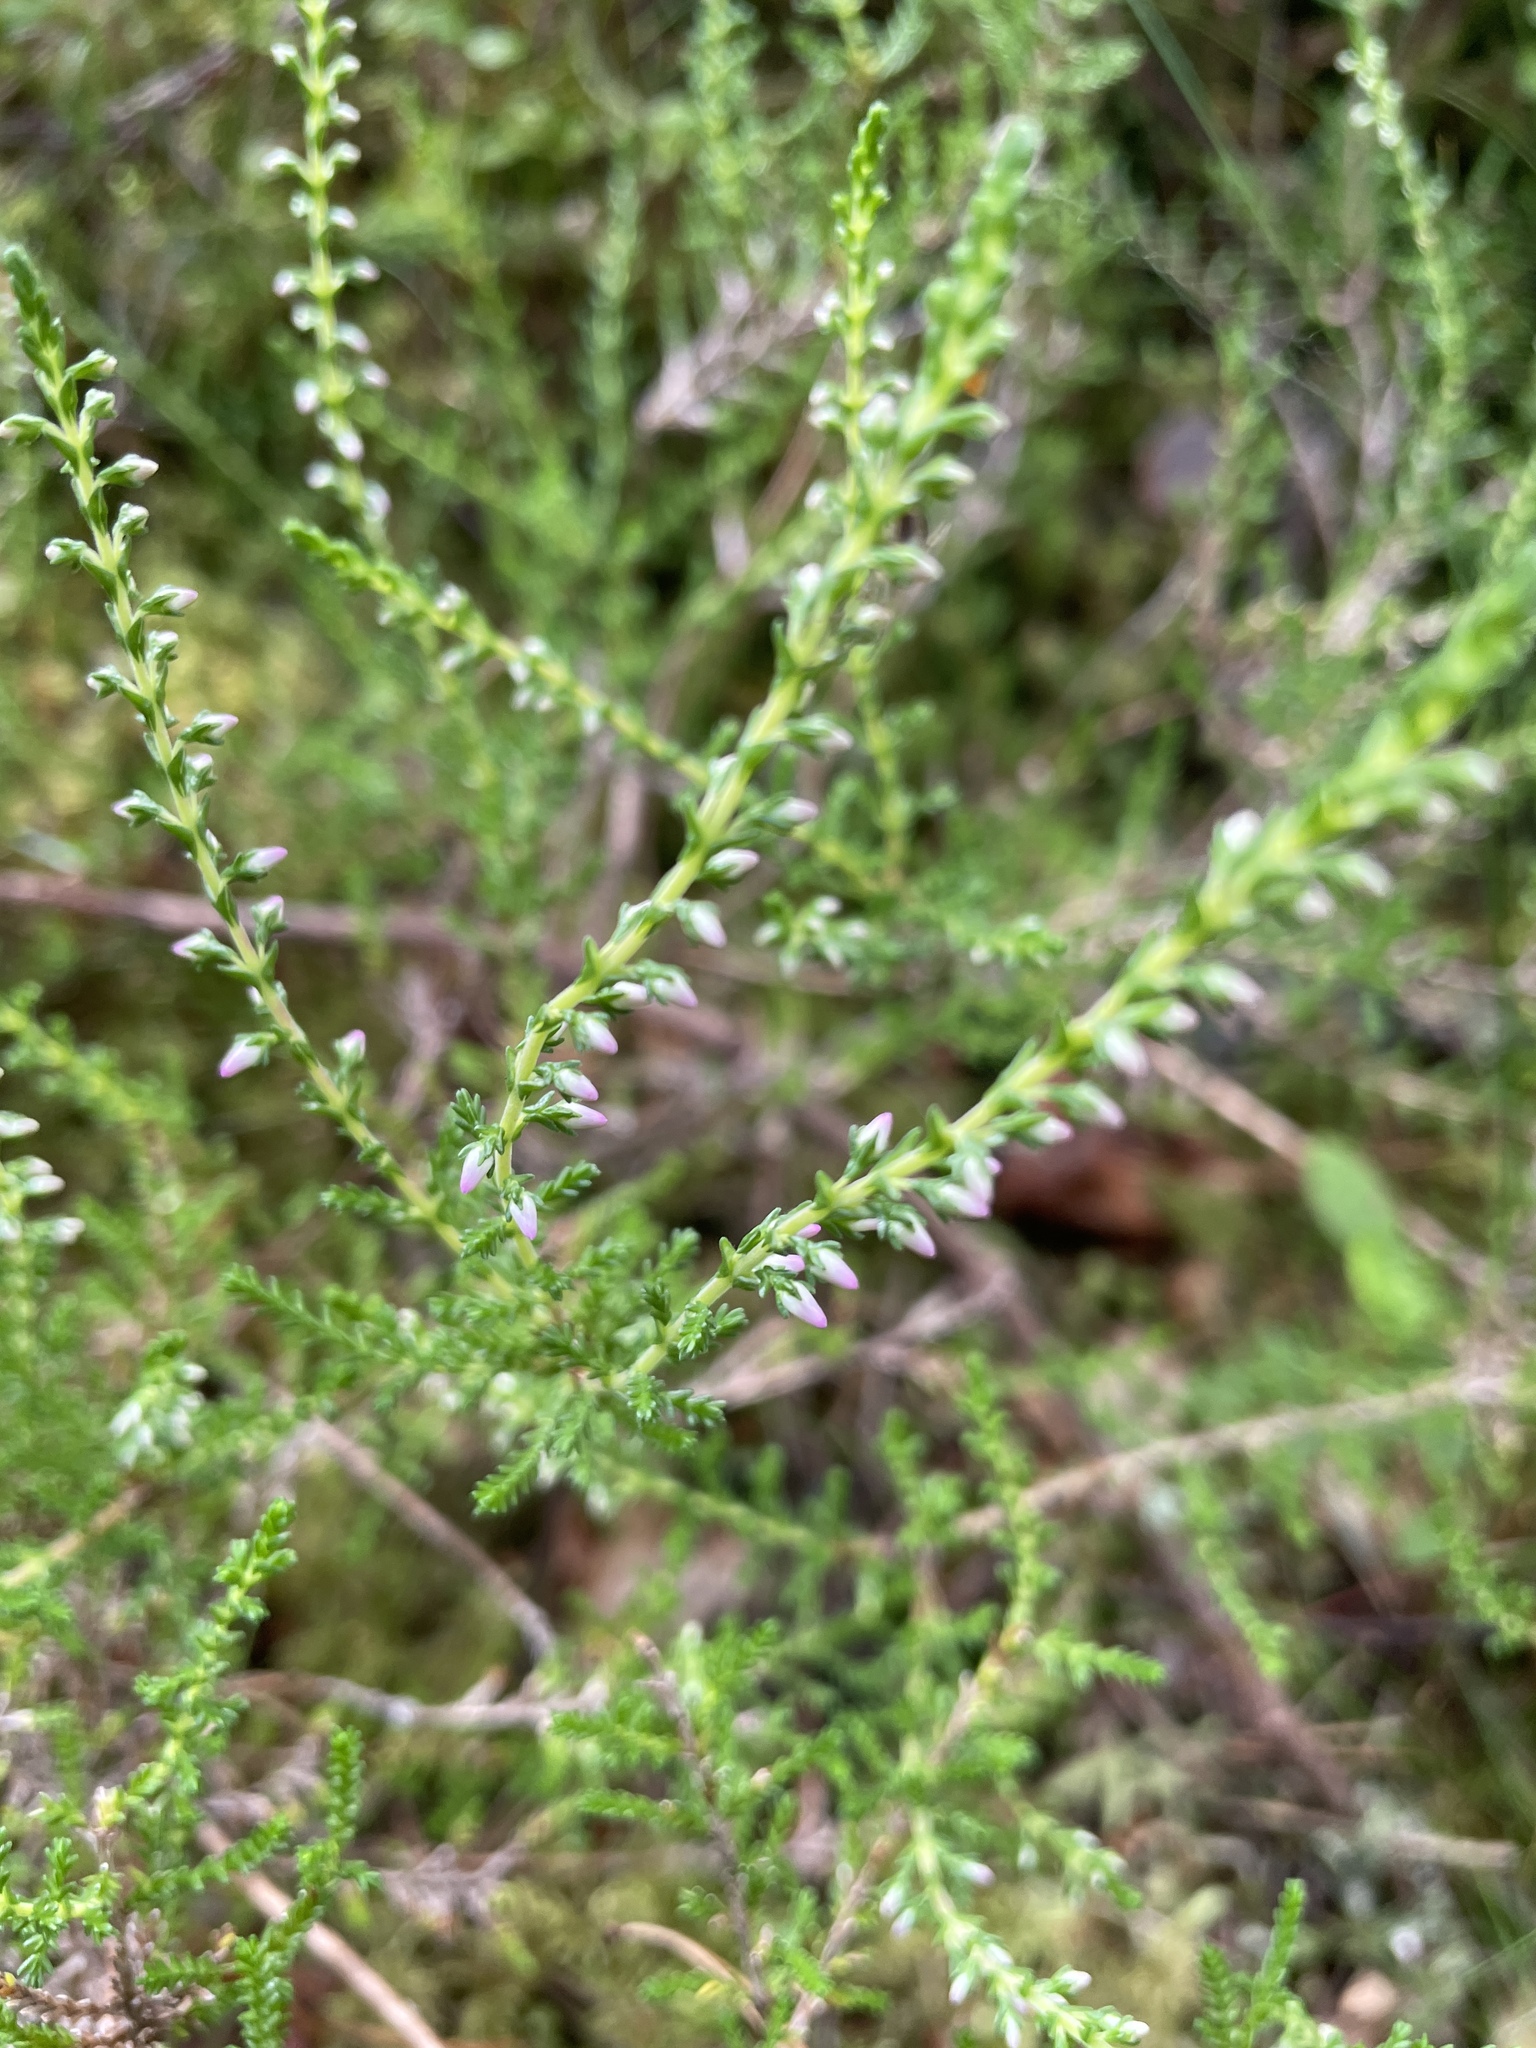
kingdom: Plantae
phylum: Tracheophyta
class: Magnoliopsida
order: Ericales
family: Ericaceae
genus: Calluna
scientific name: Calluna vulgaris
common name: Heather
